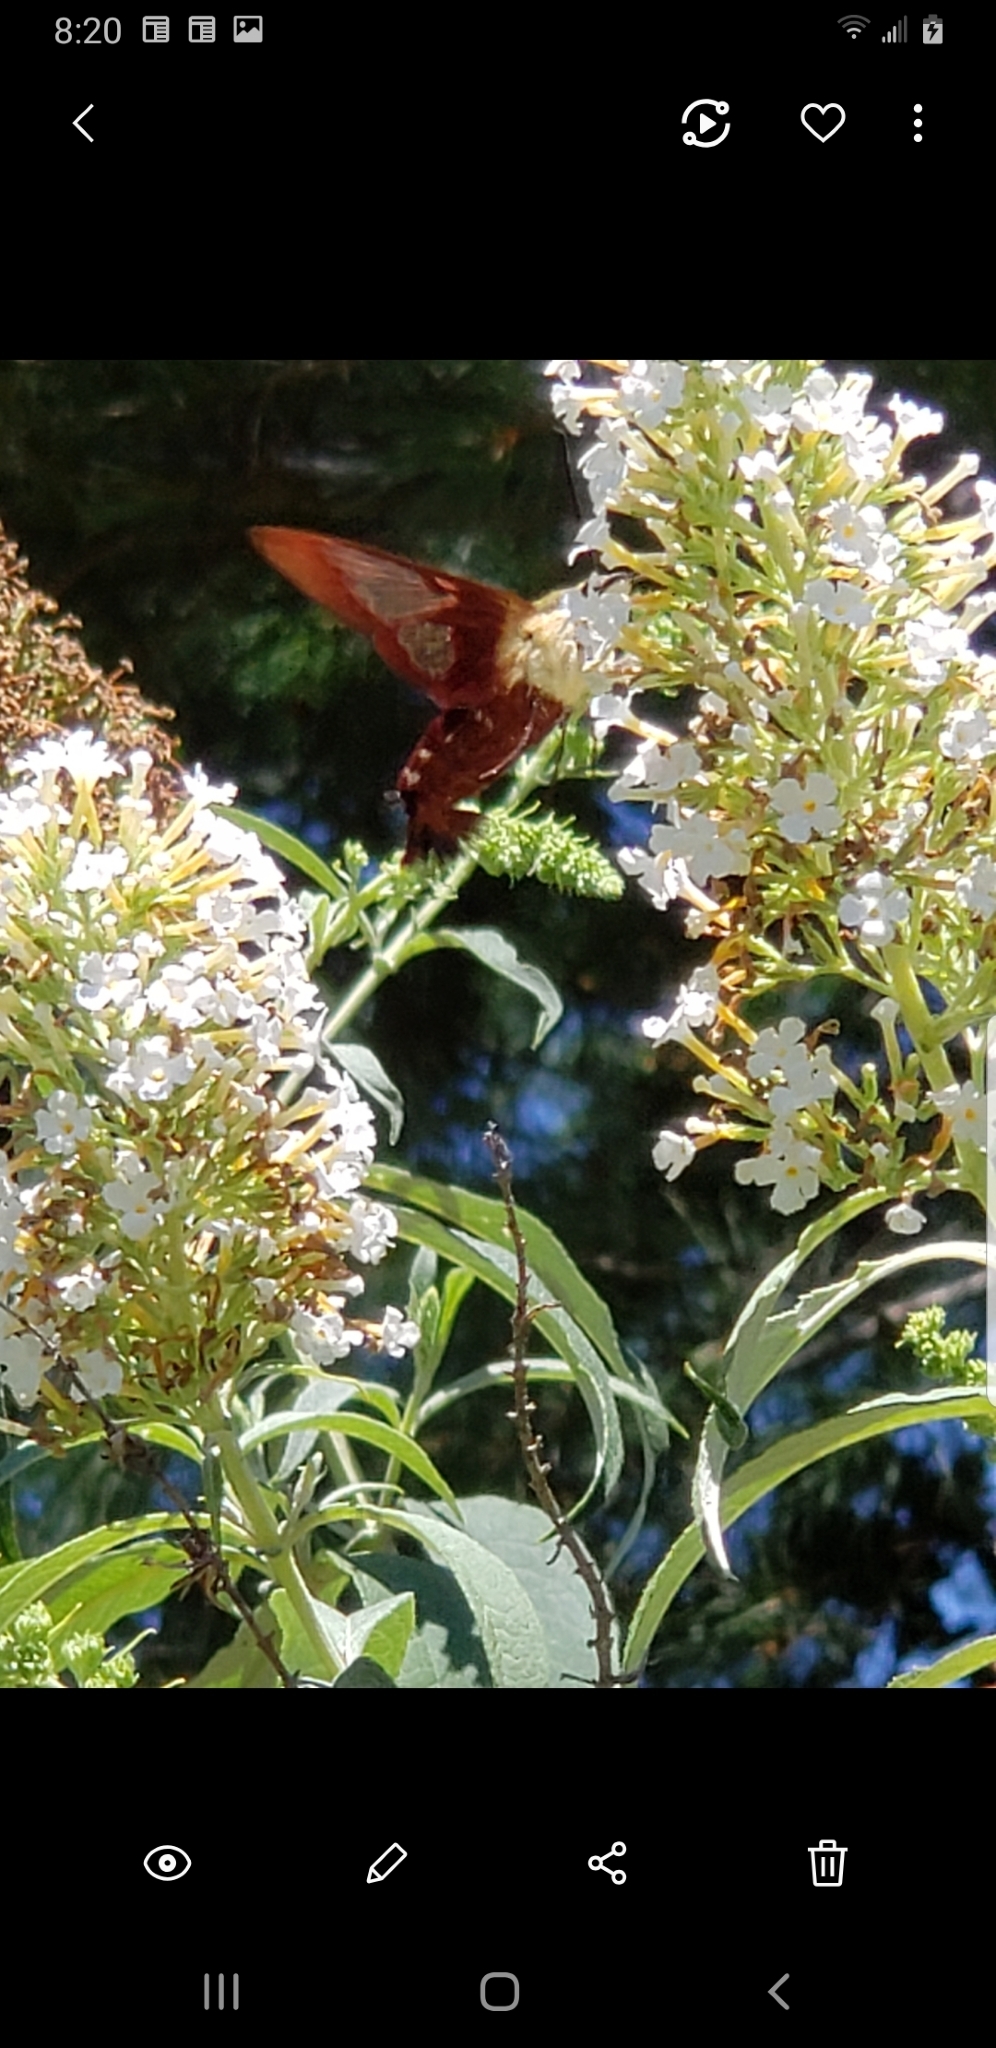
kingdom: Animalia
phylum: Arthropoda
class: Insecta
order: Lepidoptera
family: Sphingidae
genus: Hemaris
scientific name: Hemaris thysbe
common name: Common clear-wing
